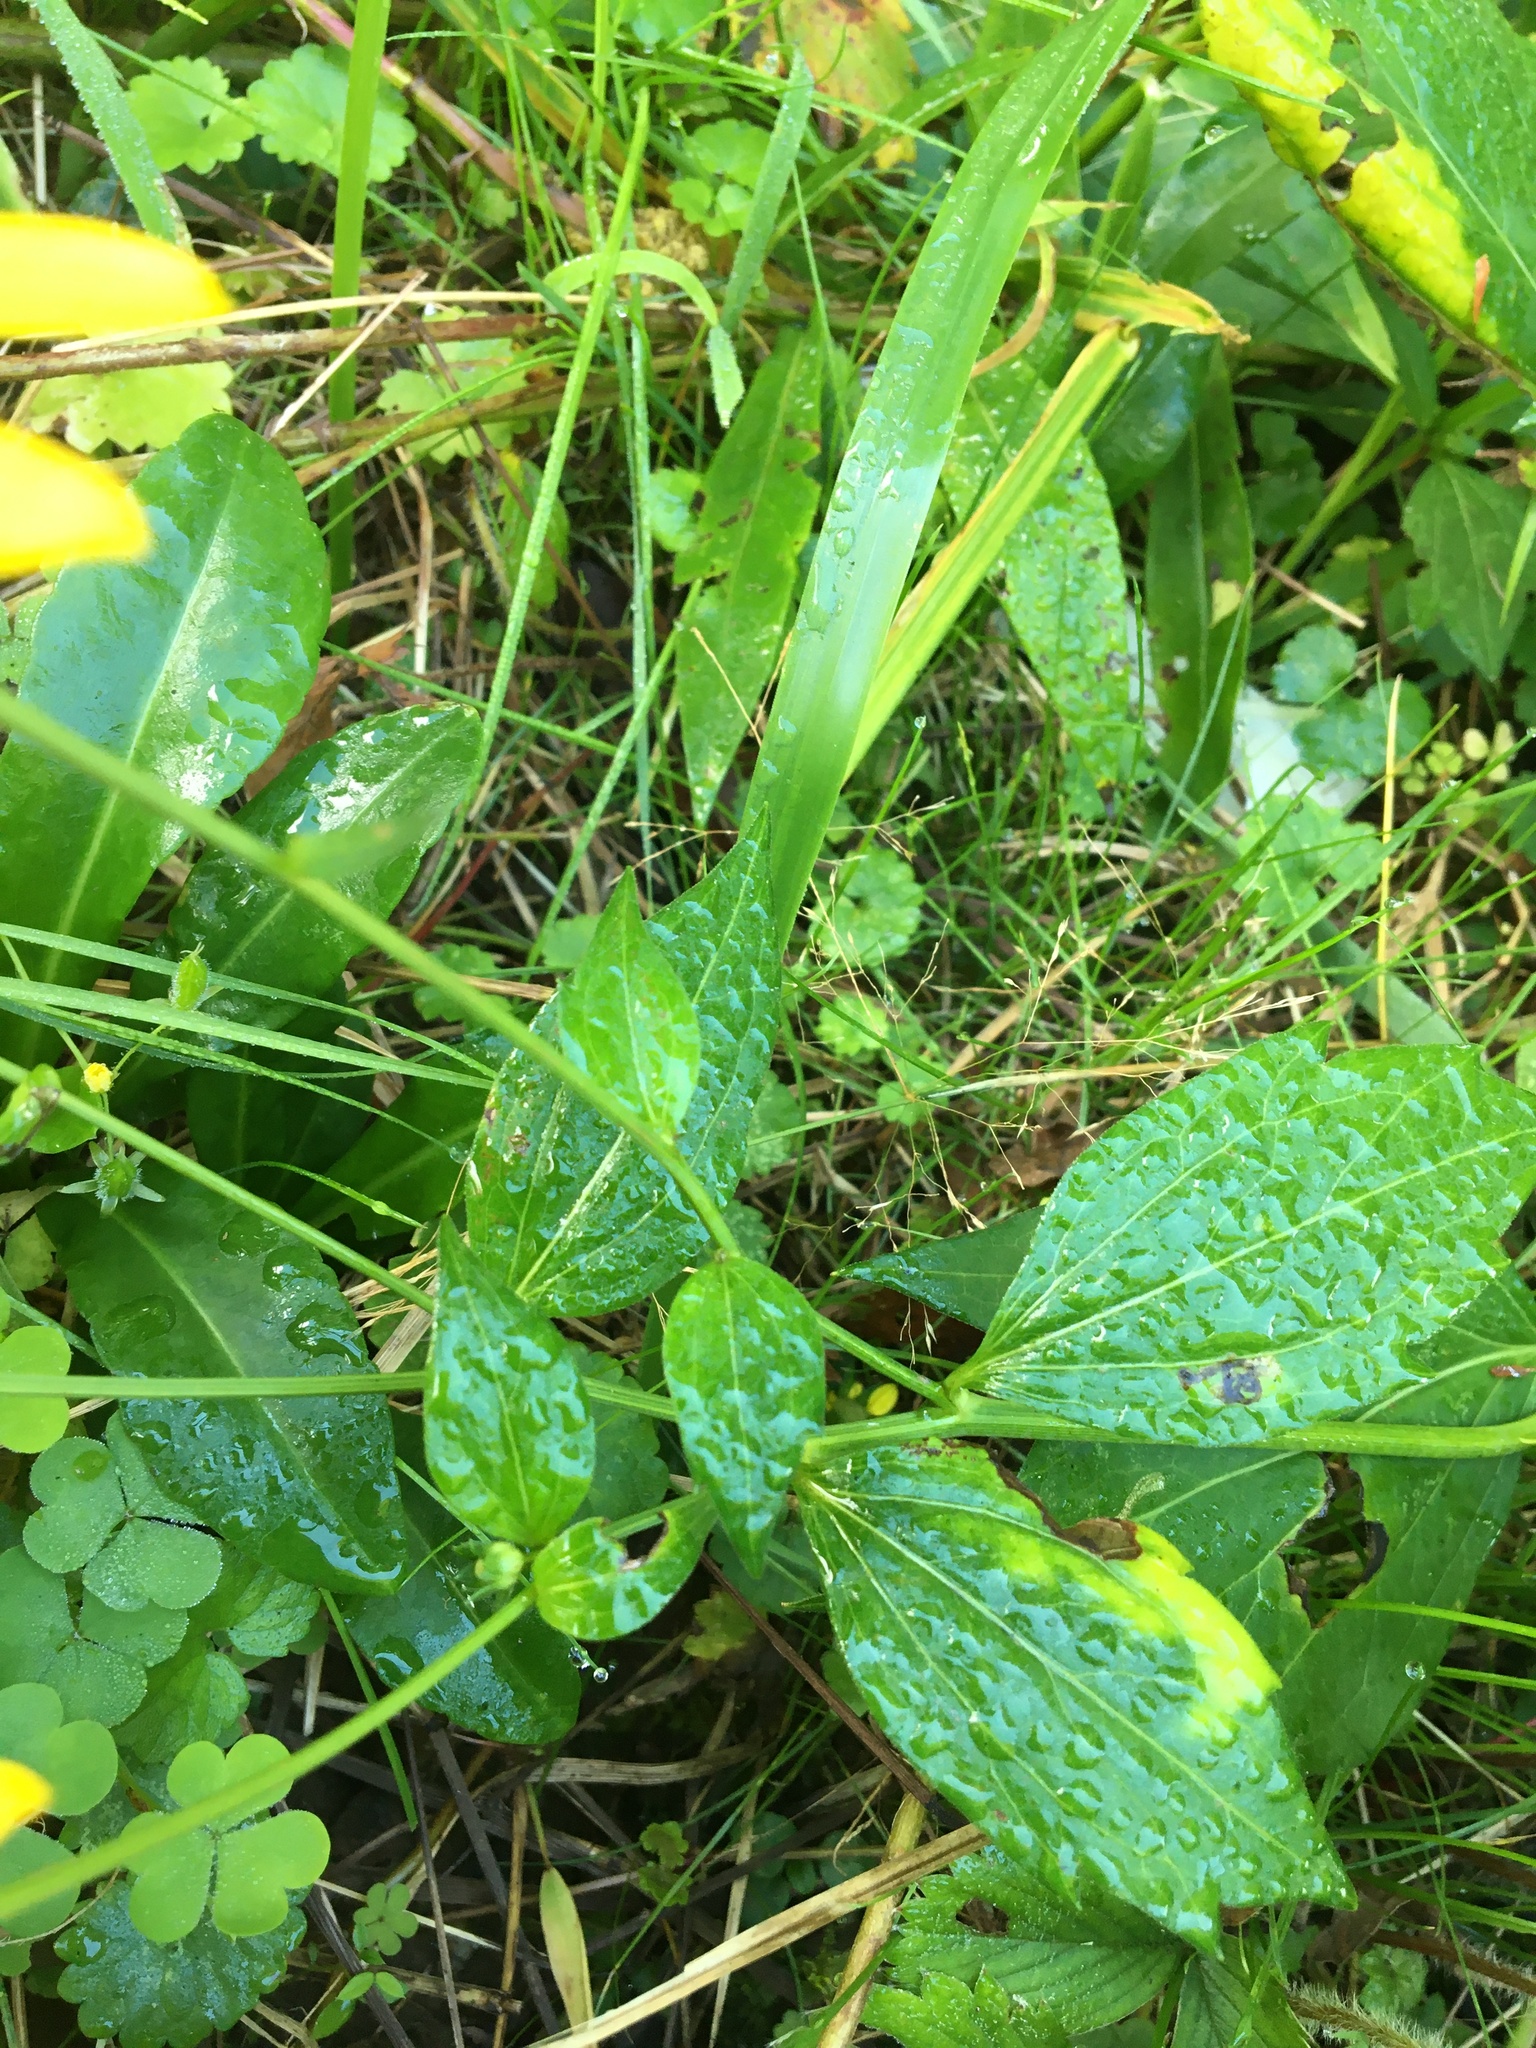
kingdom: Plantae
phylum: Tracheophyta
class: Magnoliopsida
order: Asterales
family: Asteraceae
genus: Rudbeckia
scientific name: Rudbeckia laciniata
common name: Coneflower
